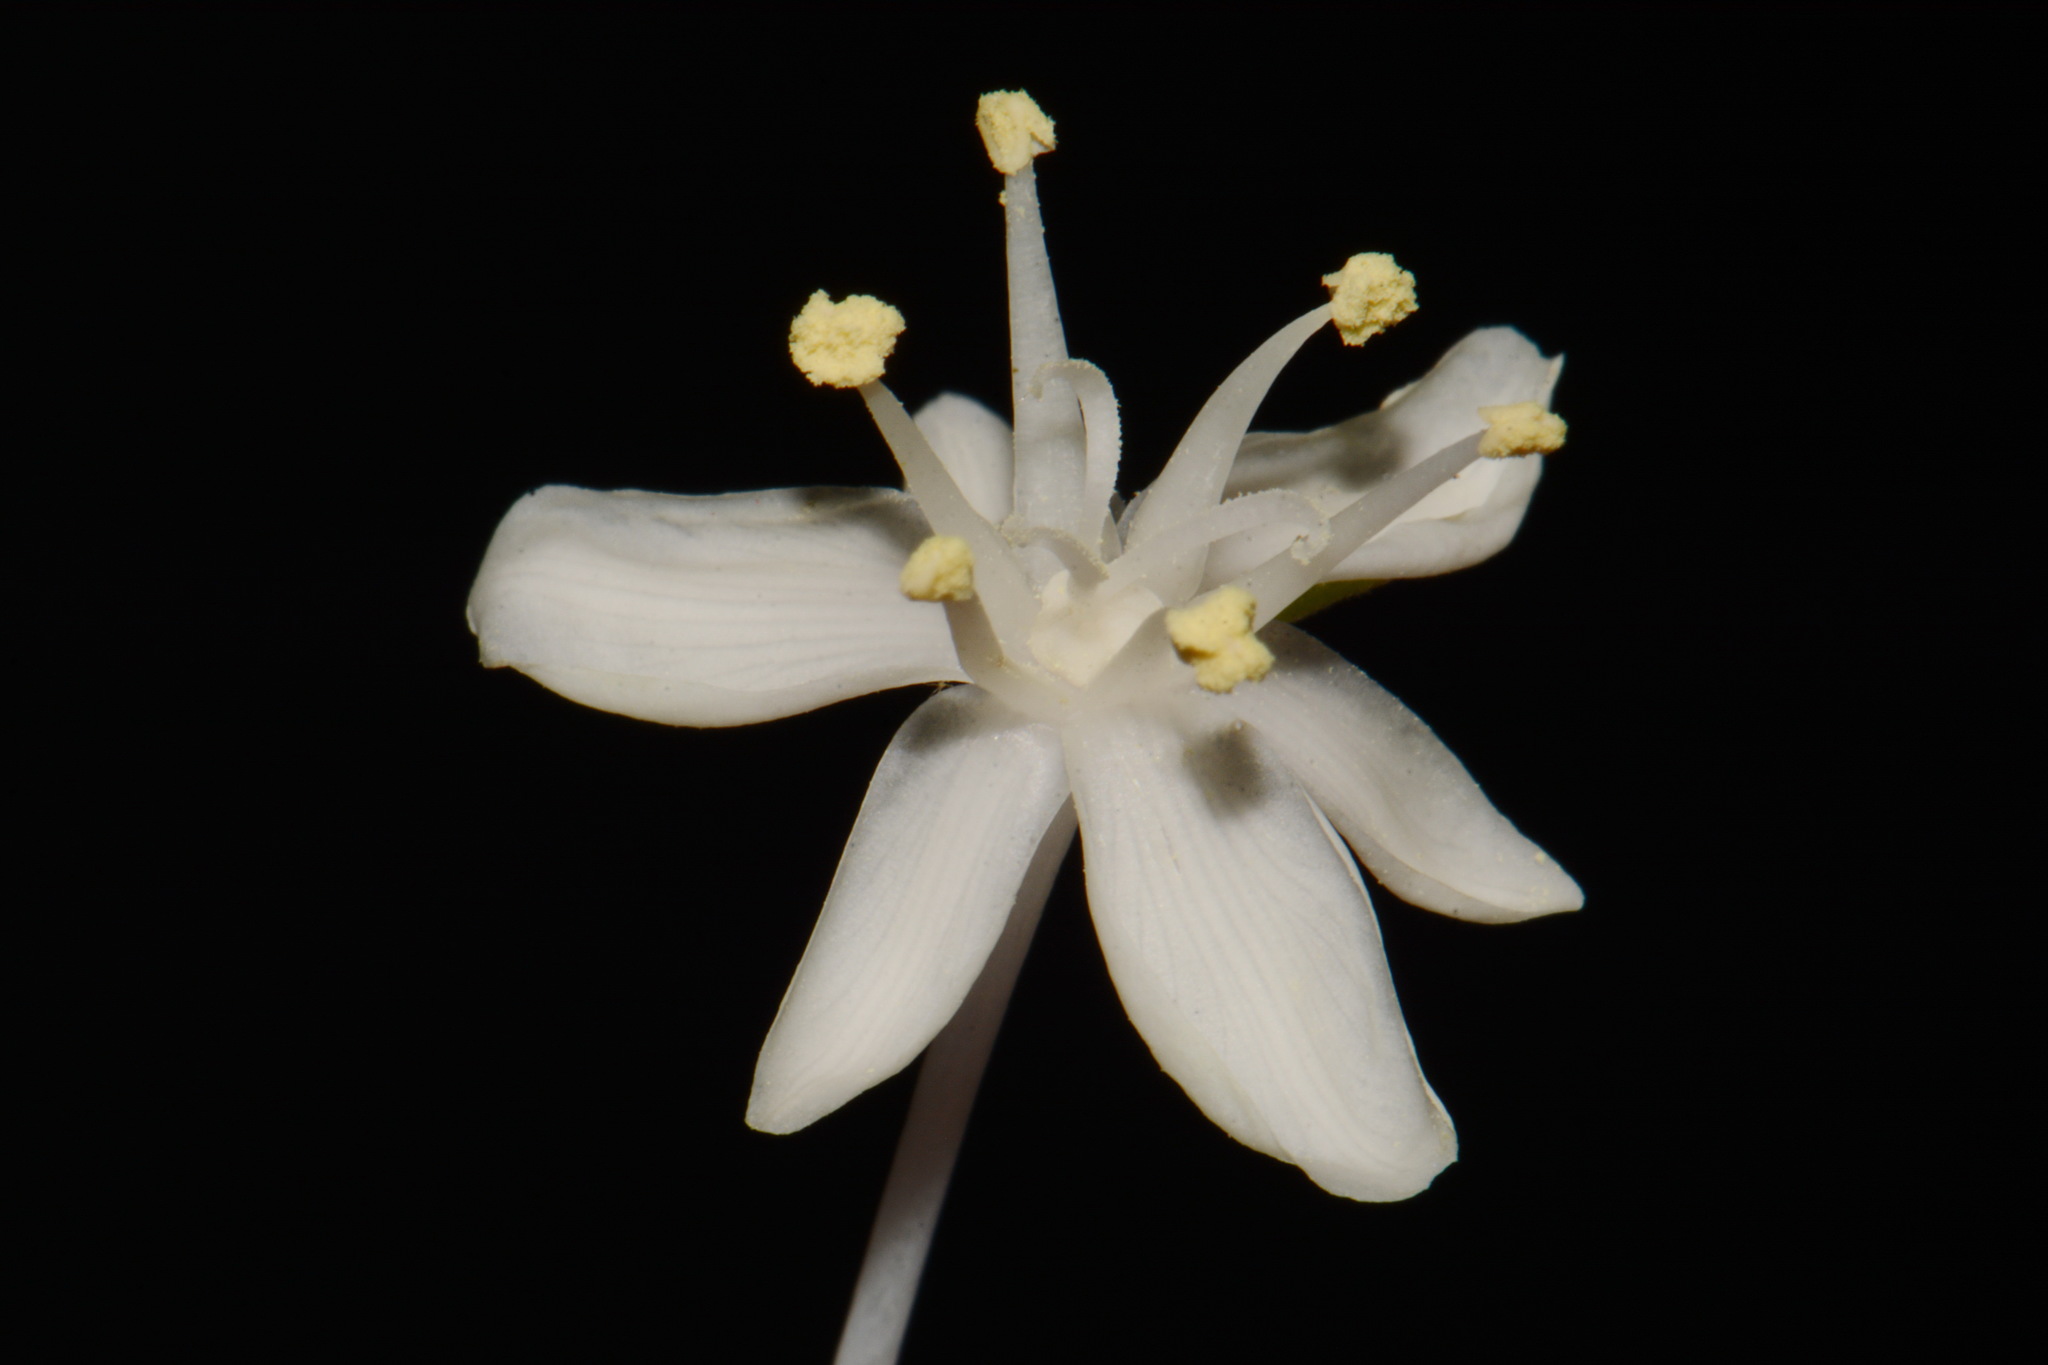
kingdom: Plantae
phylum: Tracheophyta
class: Liliopsida
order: Liliales
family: Melanthiaceae
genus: Xerophyllum
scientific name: Xerophyllum asphodeloides
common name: Mountain-asphodel
